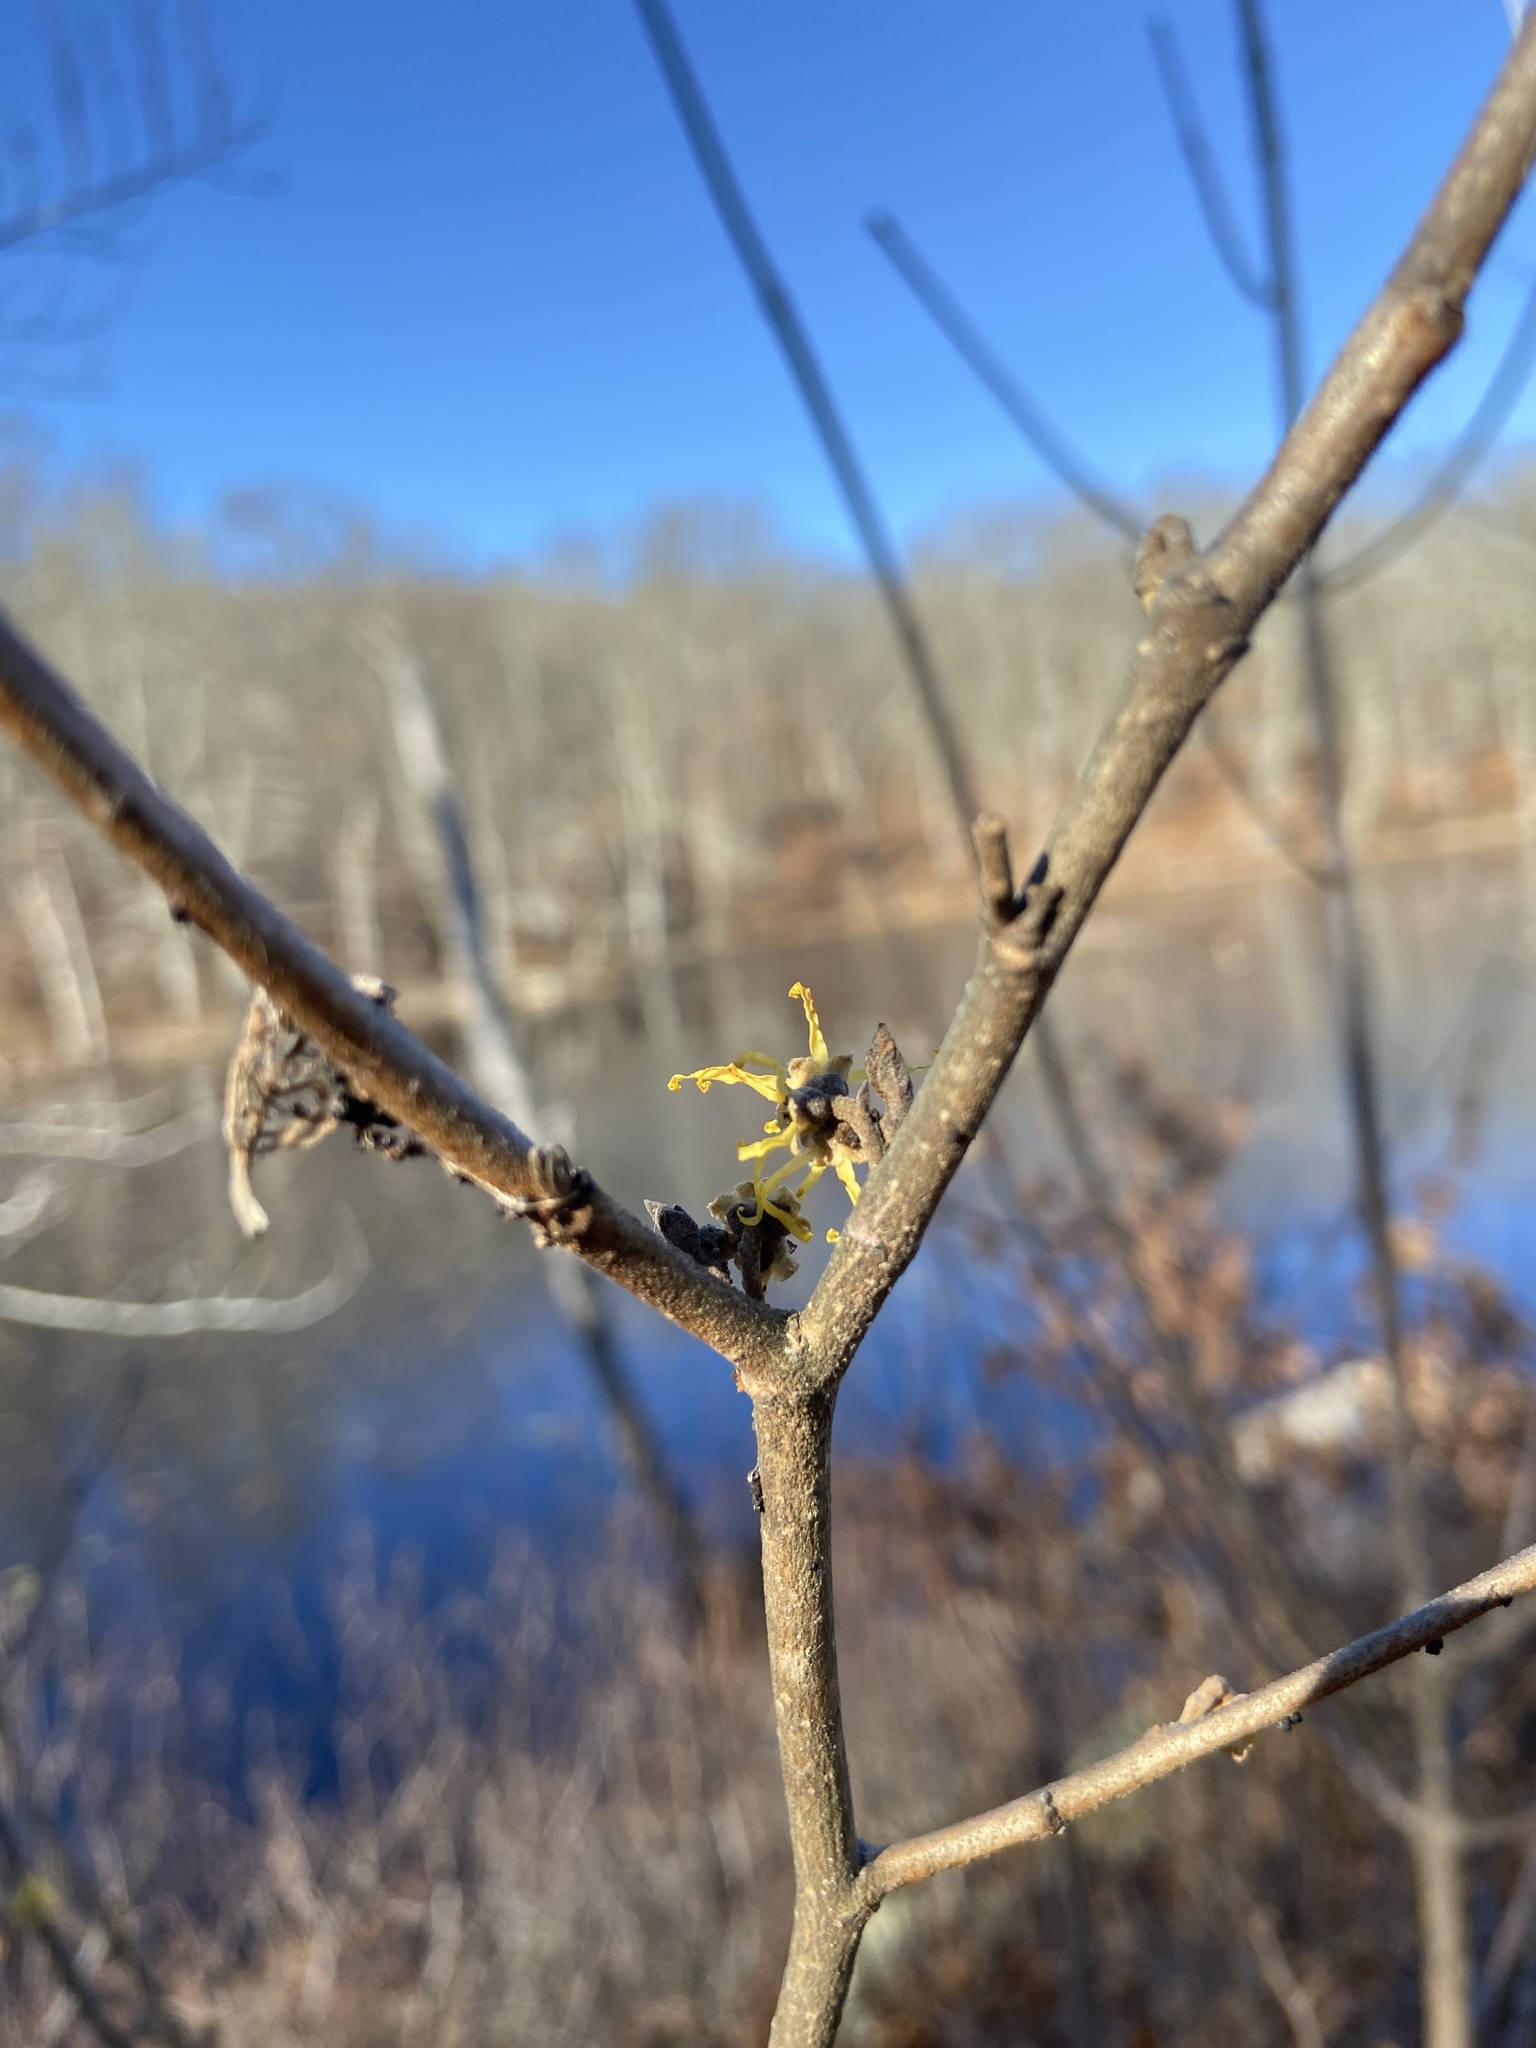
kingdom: Plantae
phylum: Tracheophyta
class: Magnoliopsida
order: Saxifragales
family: Hamamelidaceae
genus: Hamamelis
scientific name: Hamamelis virginiana
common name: Witch-hazel
